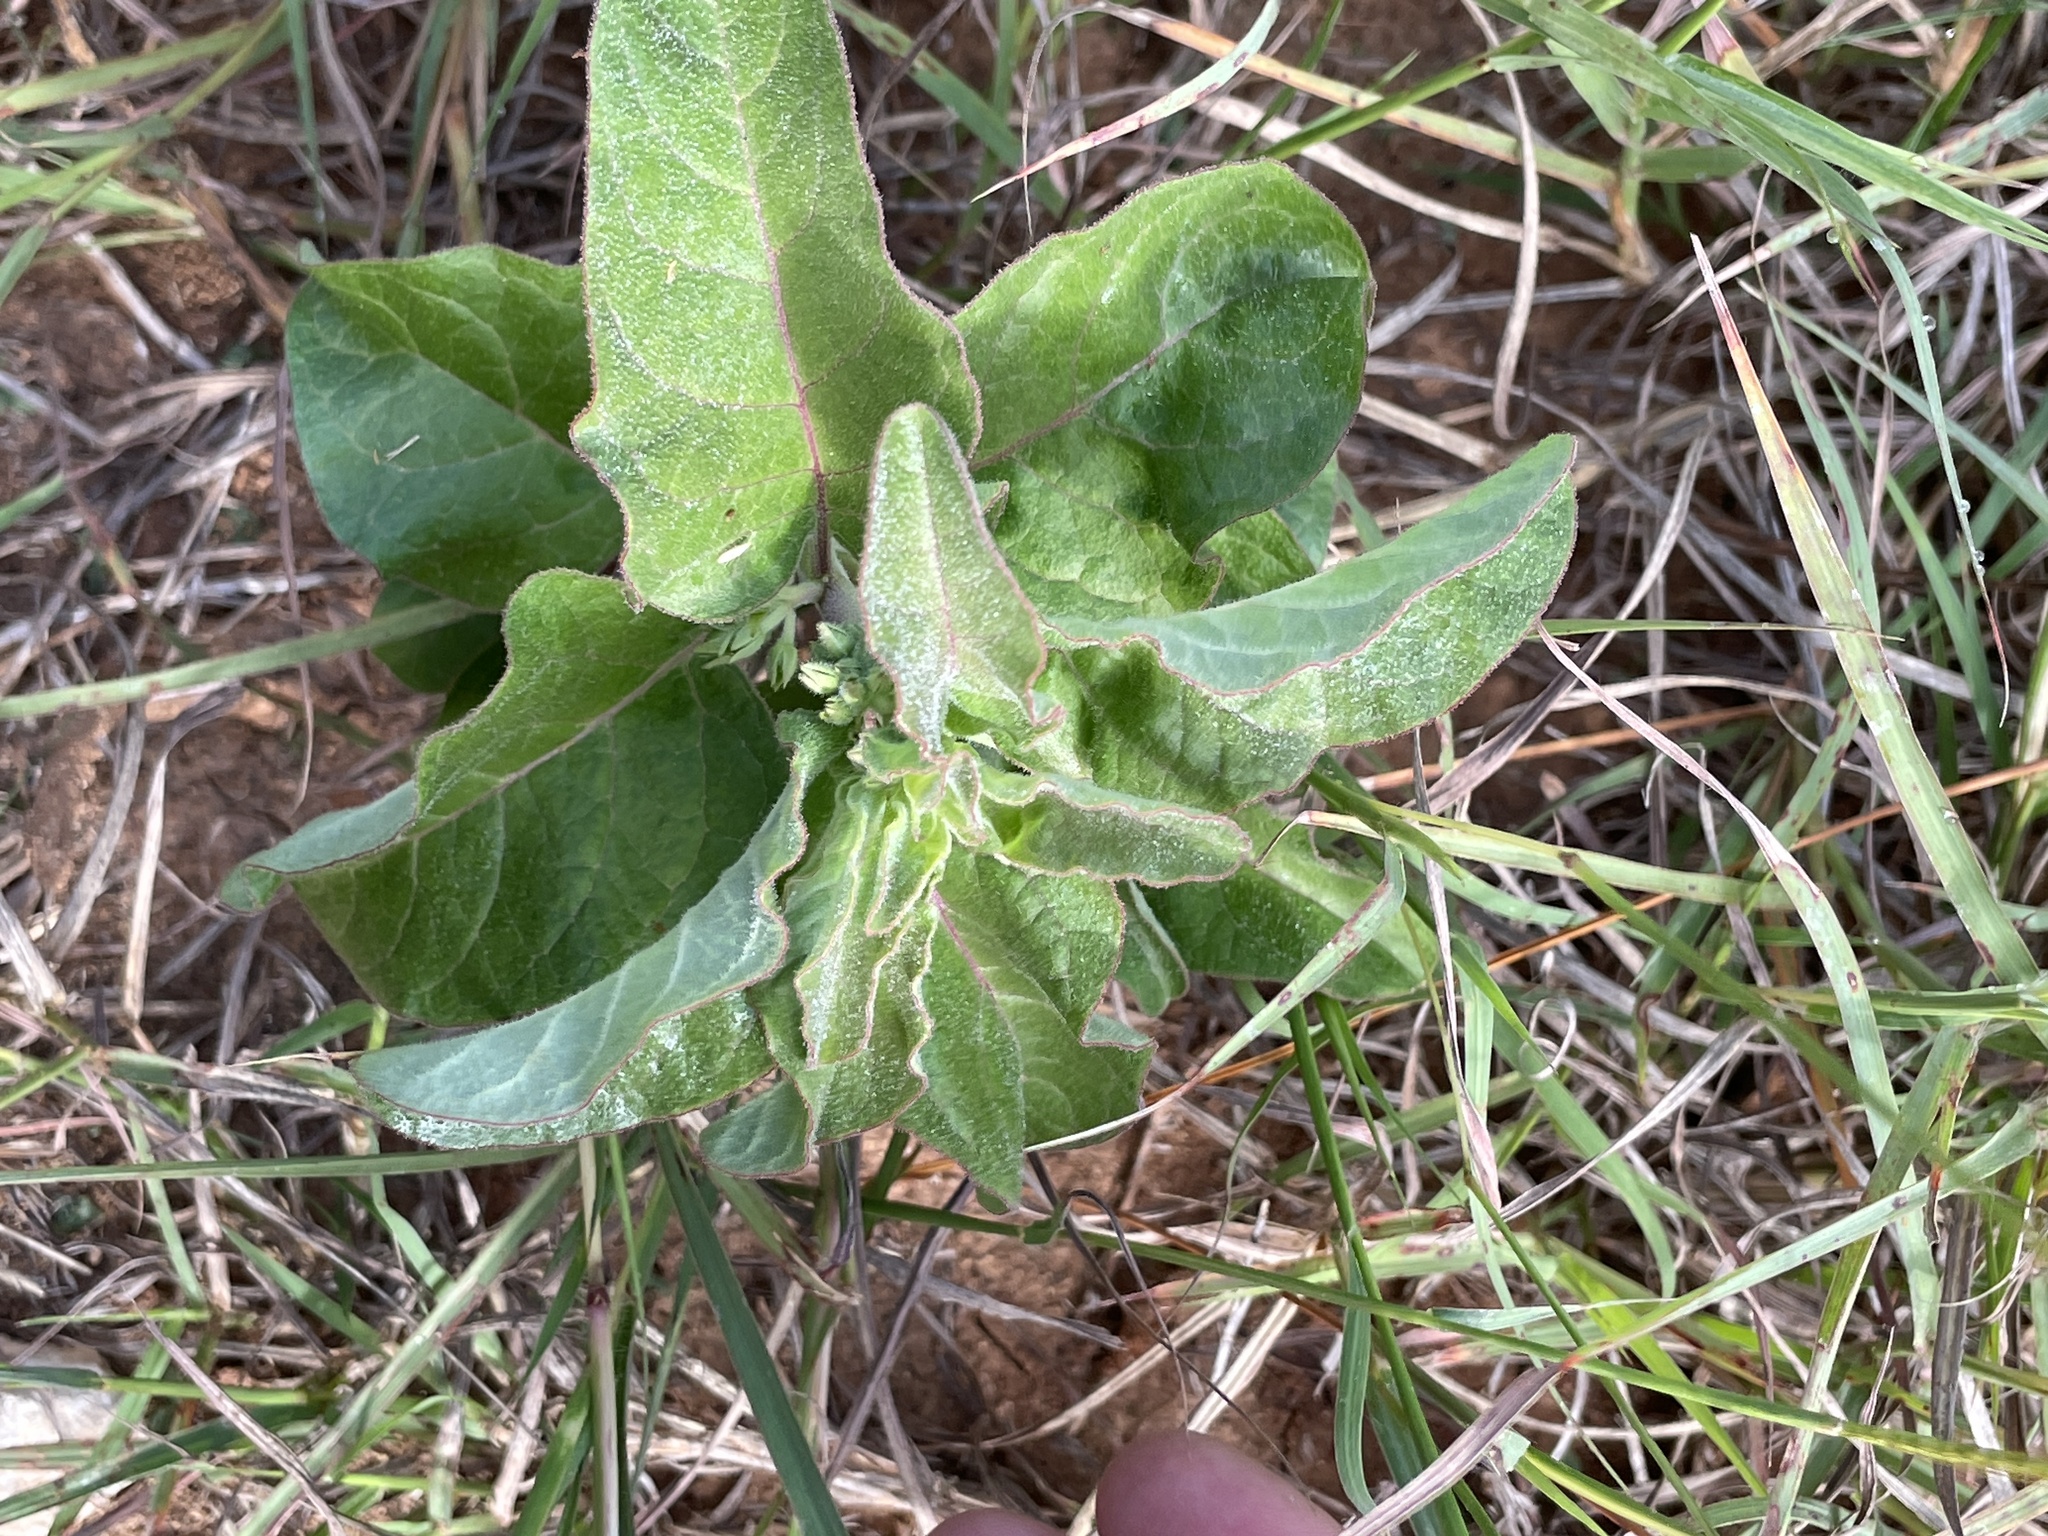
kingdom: Plantae
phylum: Tracheophyta
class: Magnoliopsida
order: Gentianales
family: Apocynaceae
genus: Asclepias
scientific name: Asclepias oenotheroides
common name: Zizotes milkweed
